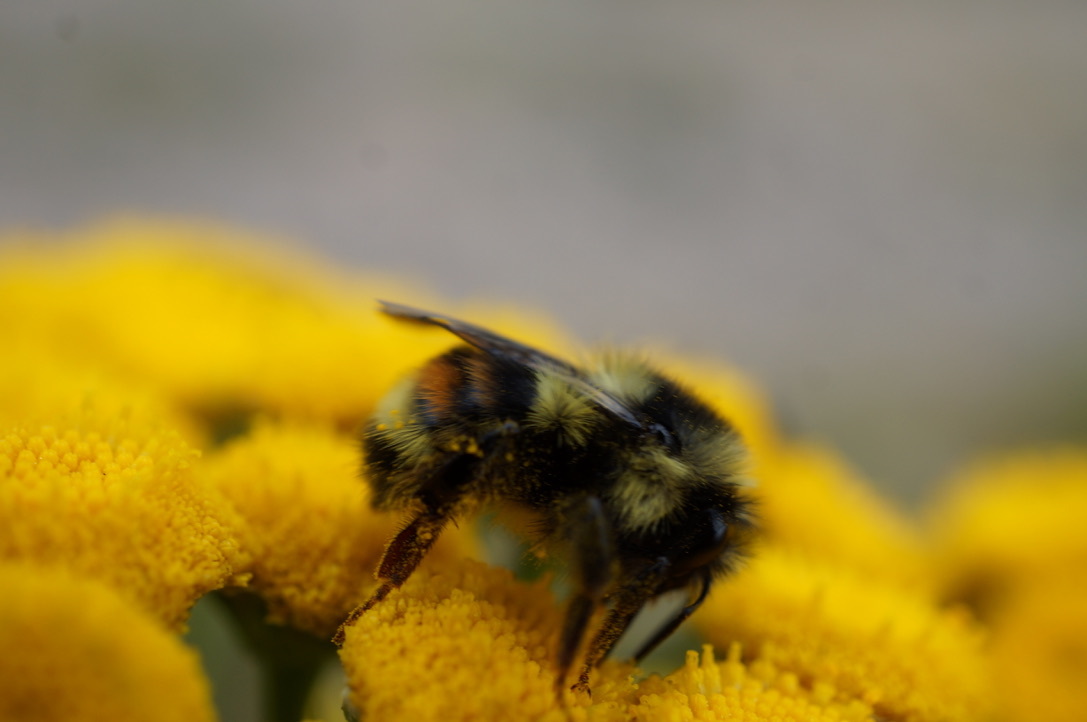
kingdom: Animalia
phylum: Arthropoda
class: Insecta
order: Hymenoptera
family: Apidae
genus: Bombus
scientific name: Bombus vancouverensis
